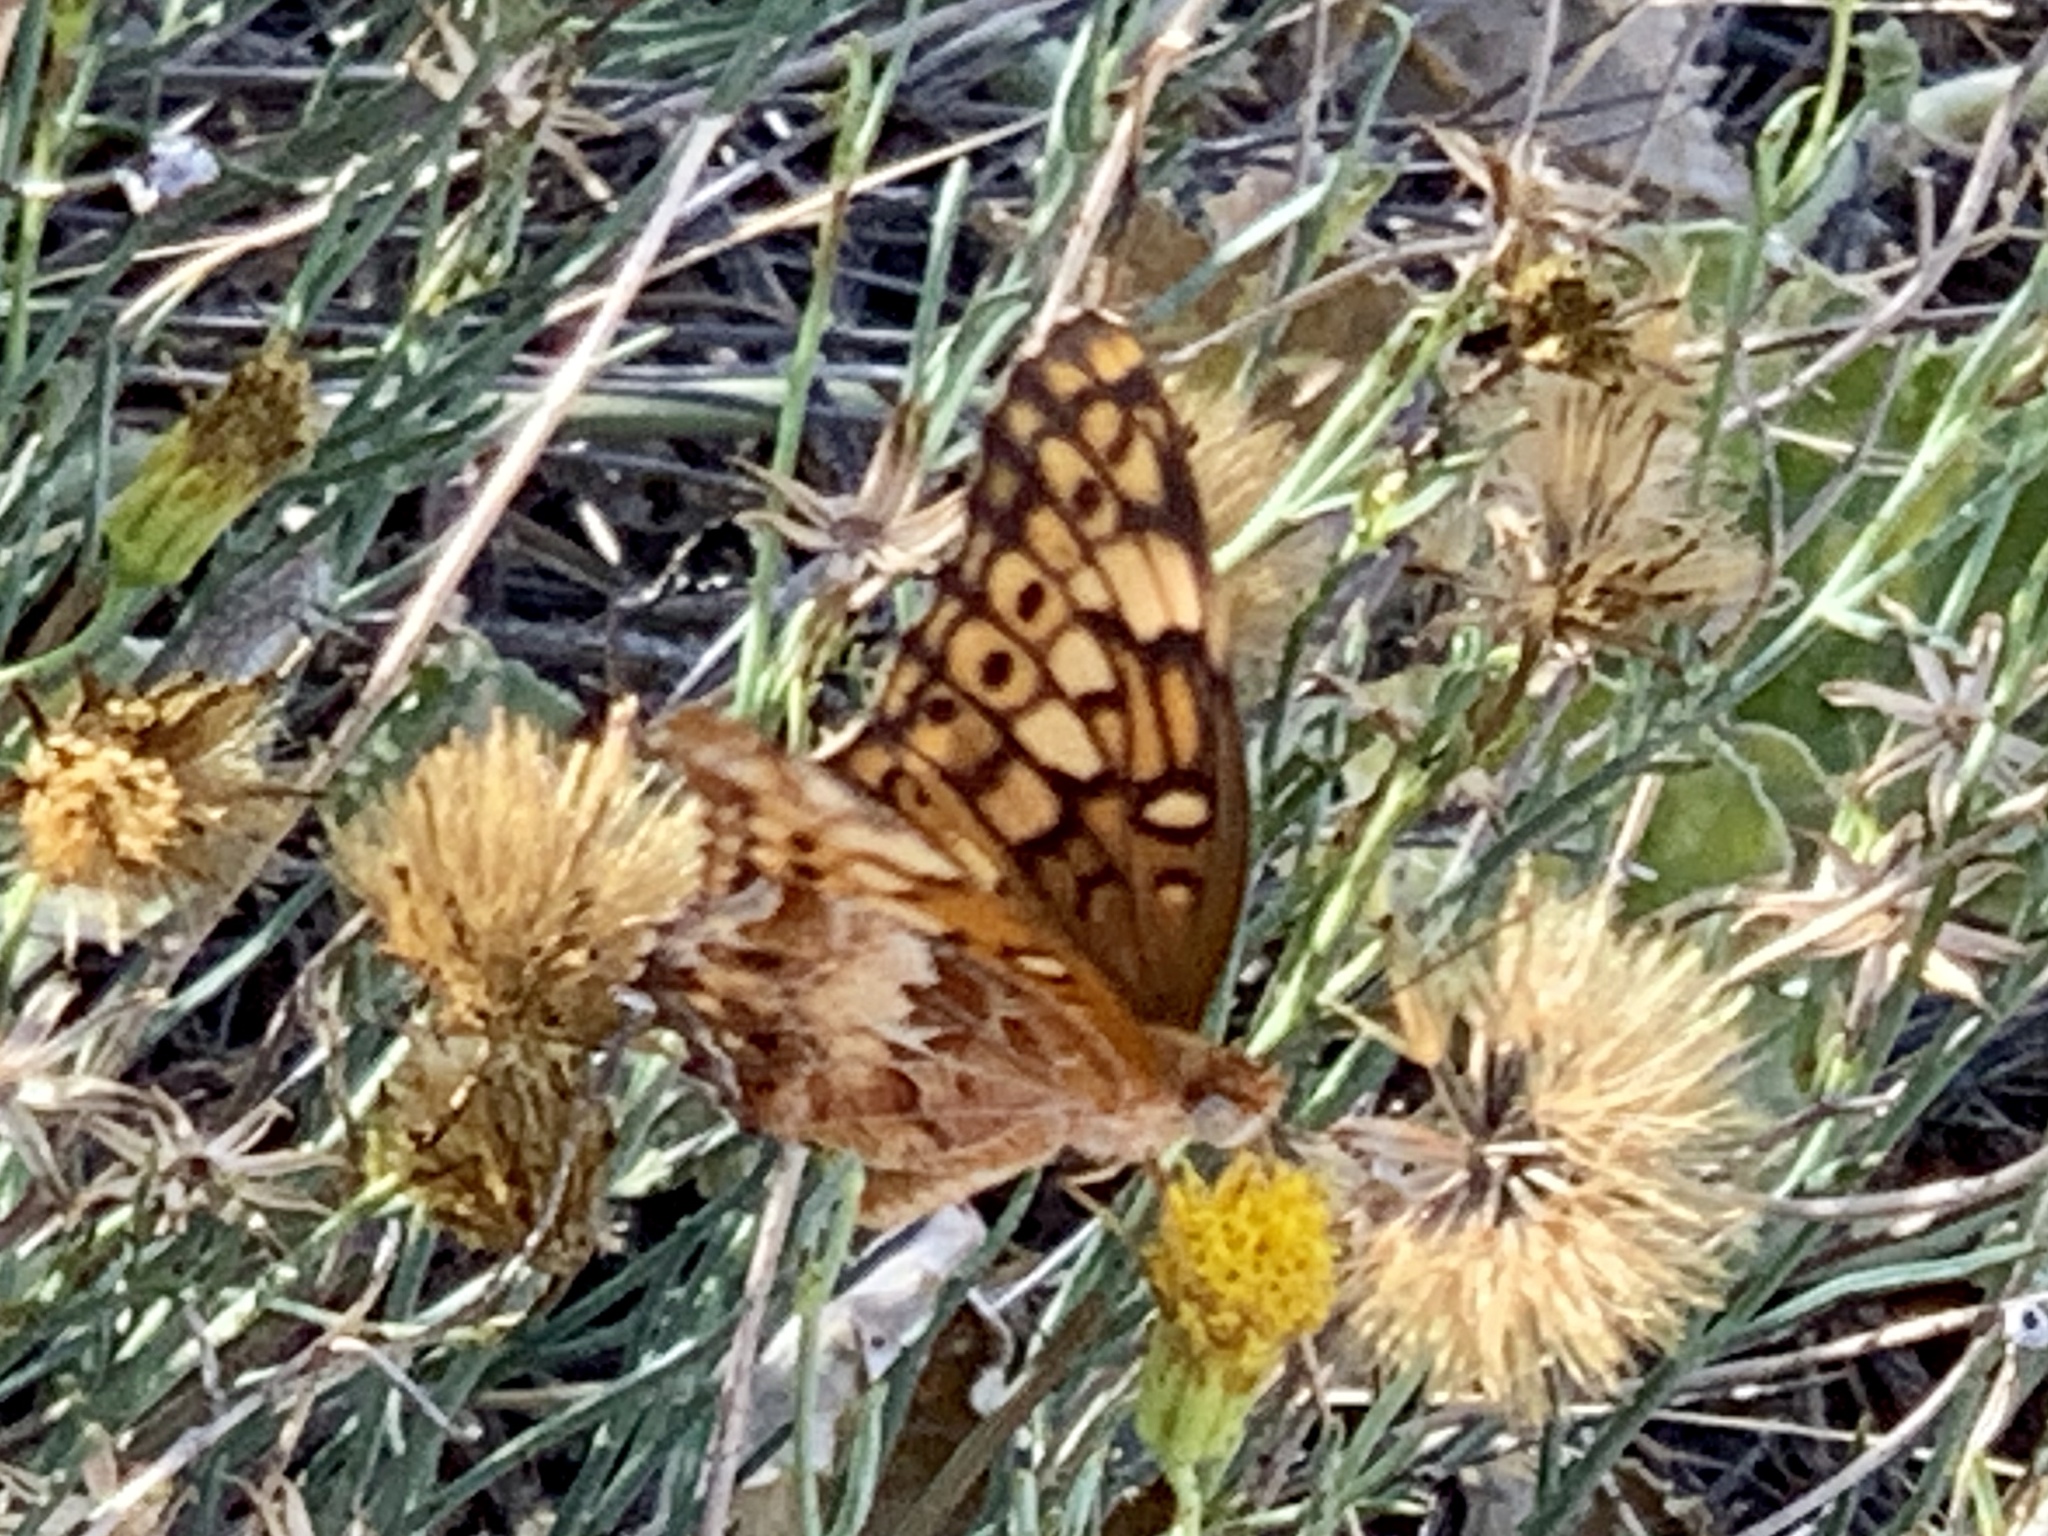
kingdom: Animalia
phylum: Arthropoda
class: Insecta
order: Lepidoptera
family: Nymphalidae
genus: Euptoieta
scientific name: Euptoieta claudia
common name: Variegated fritillary
